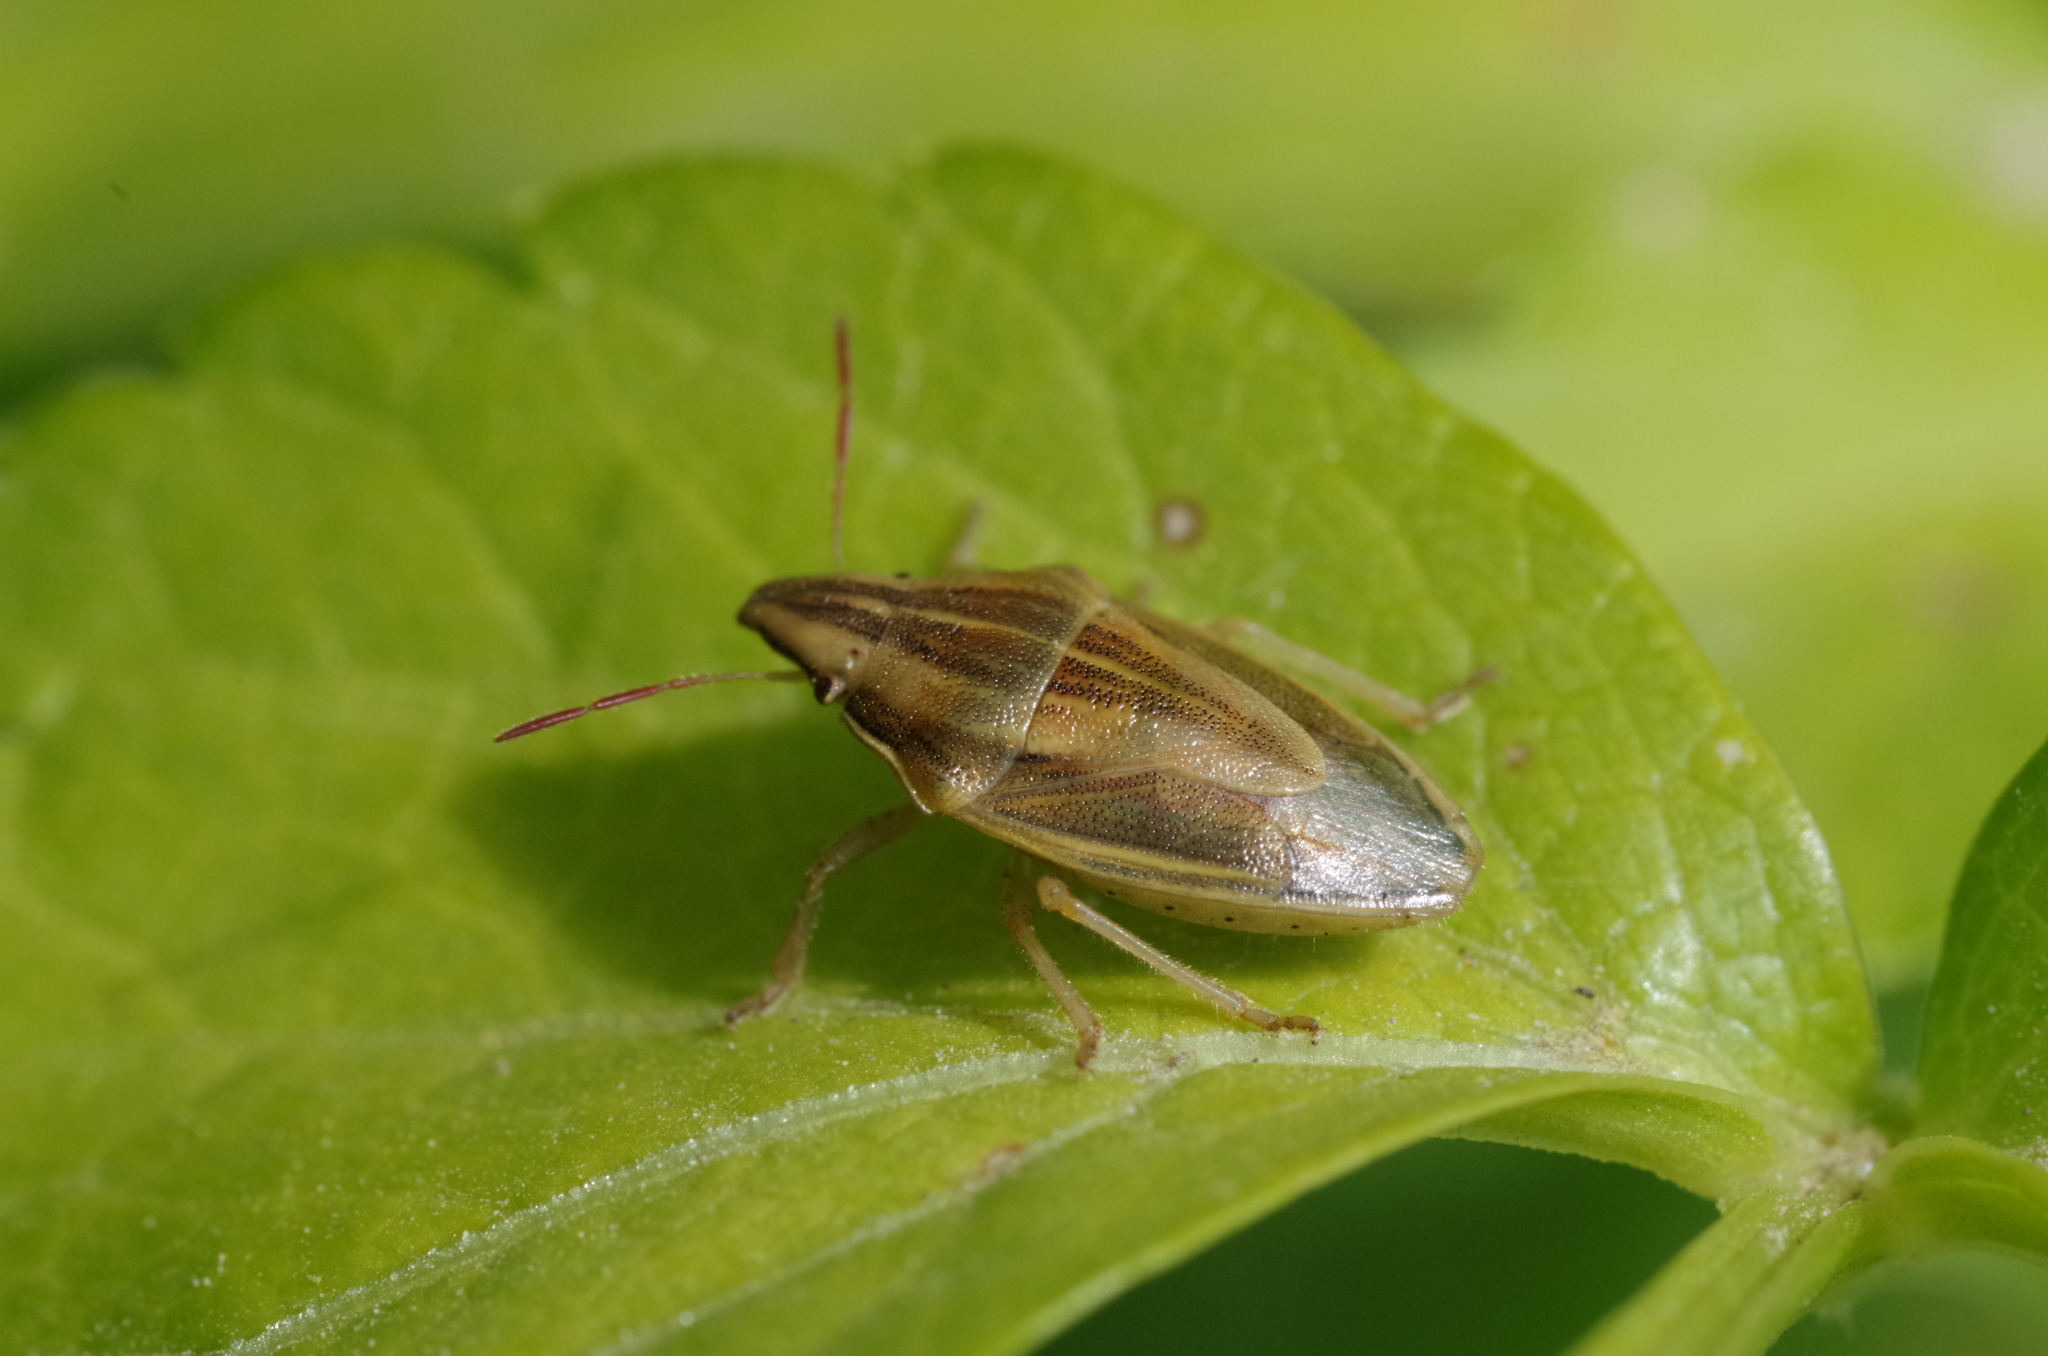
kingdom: Animalia
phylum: Arthropoda
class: Insecta
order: Hemiptera
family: Pentatomidae
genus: Aelia
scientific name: Aelia acuminata
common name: Bishop's mitre
